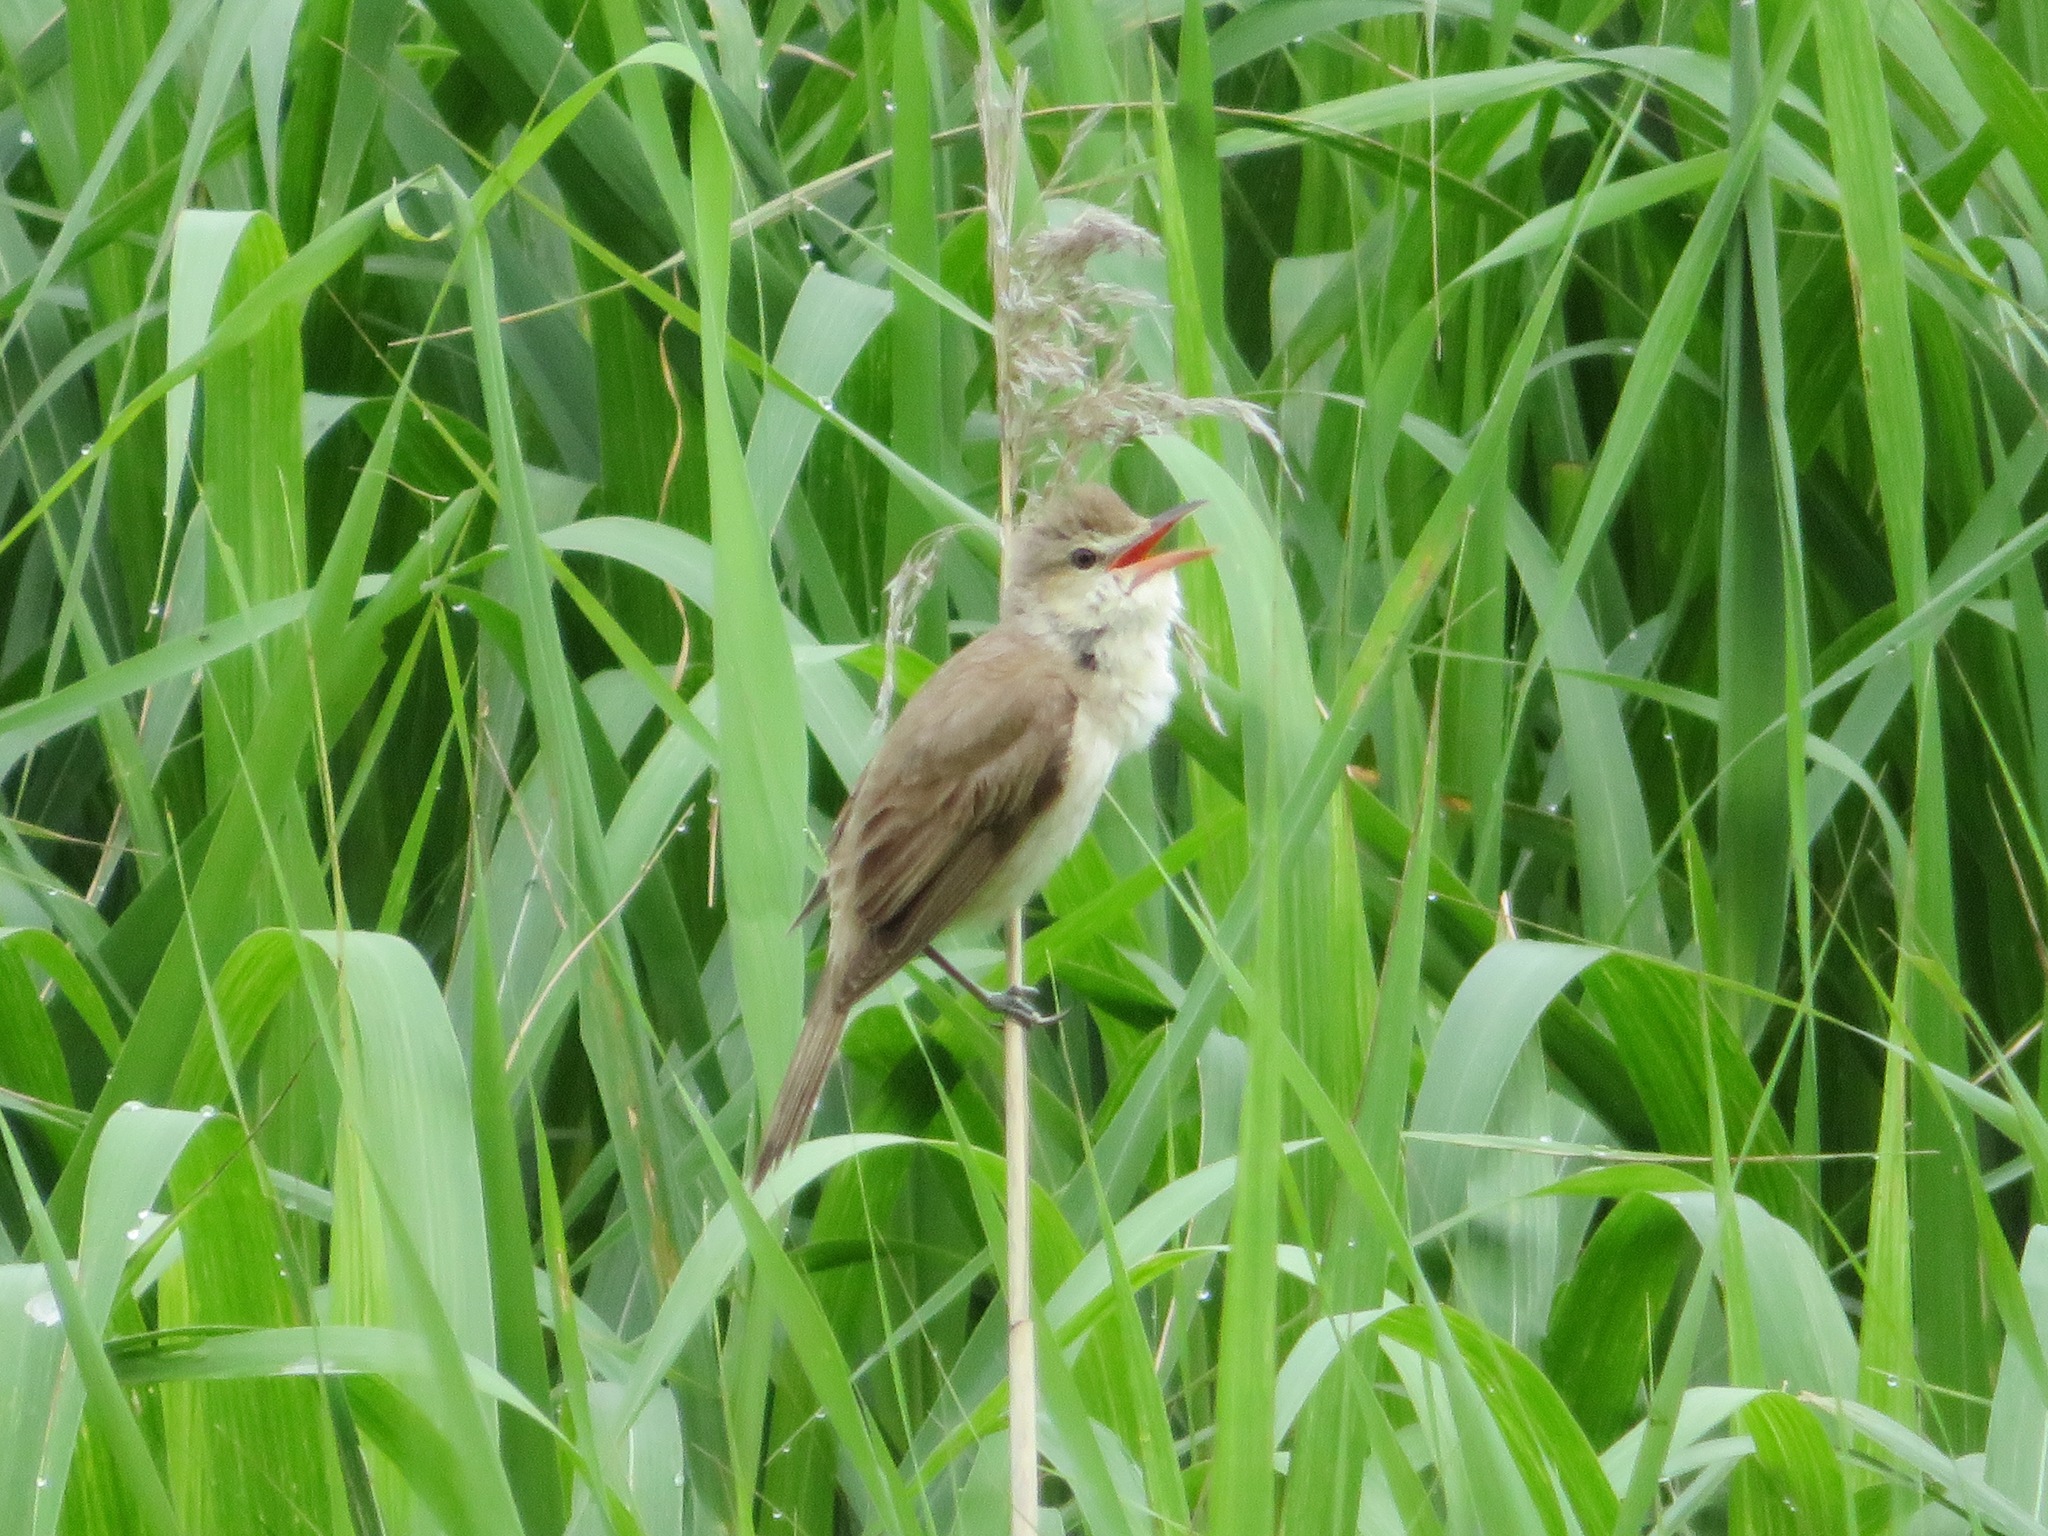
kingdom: Animalia
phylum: Chordata
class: Aves
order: Passeriformes
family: Acrocephalidae
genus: Acrocephalus
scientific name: Acrocephalus orientalis
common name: Oriental reed warbler
